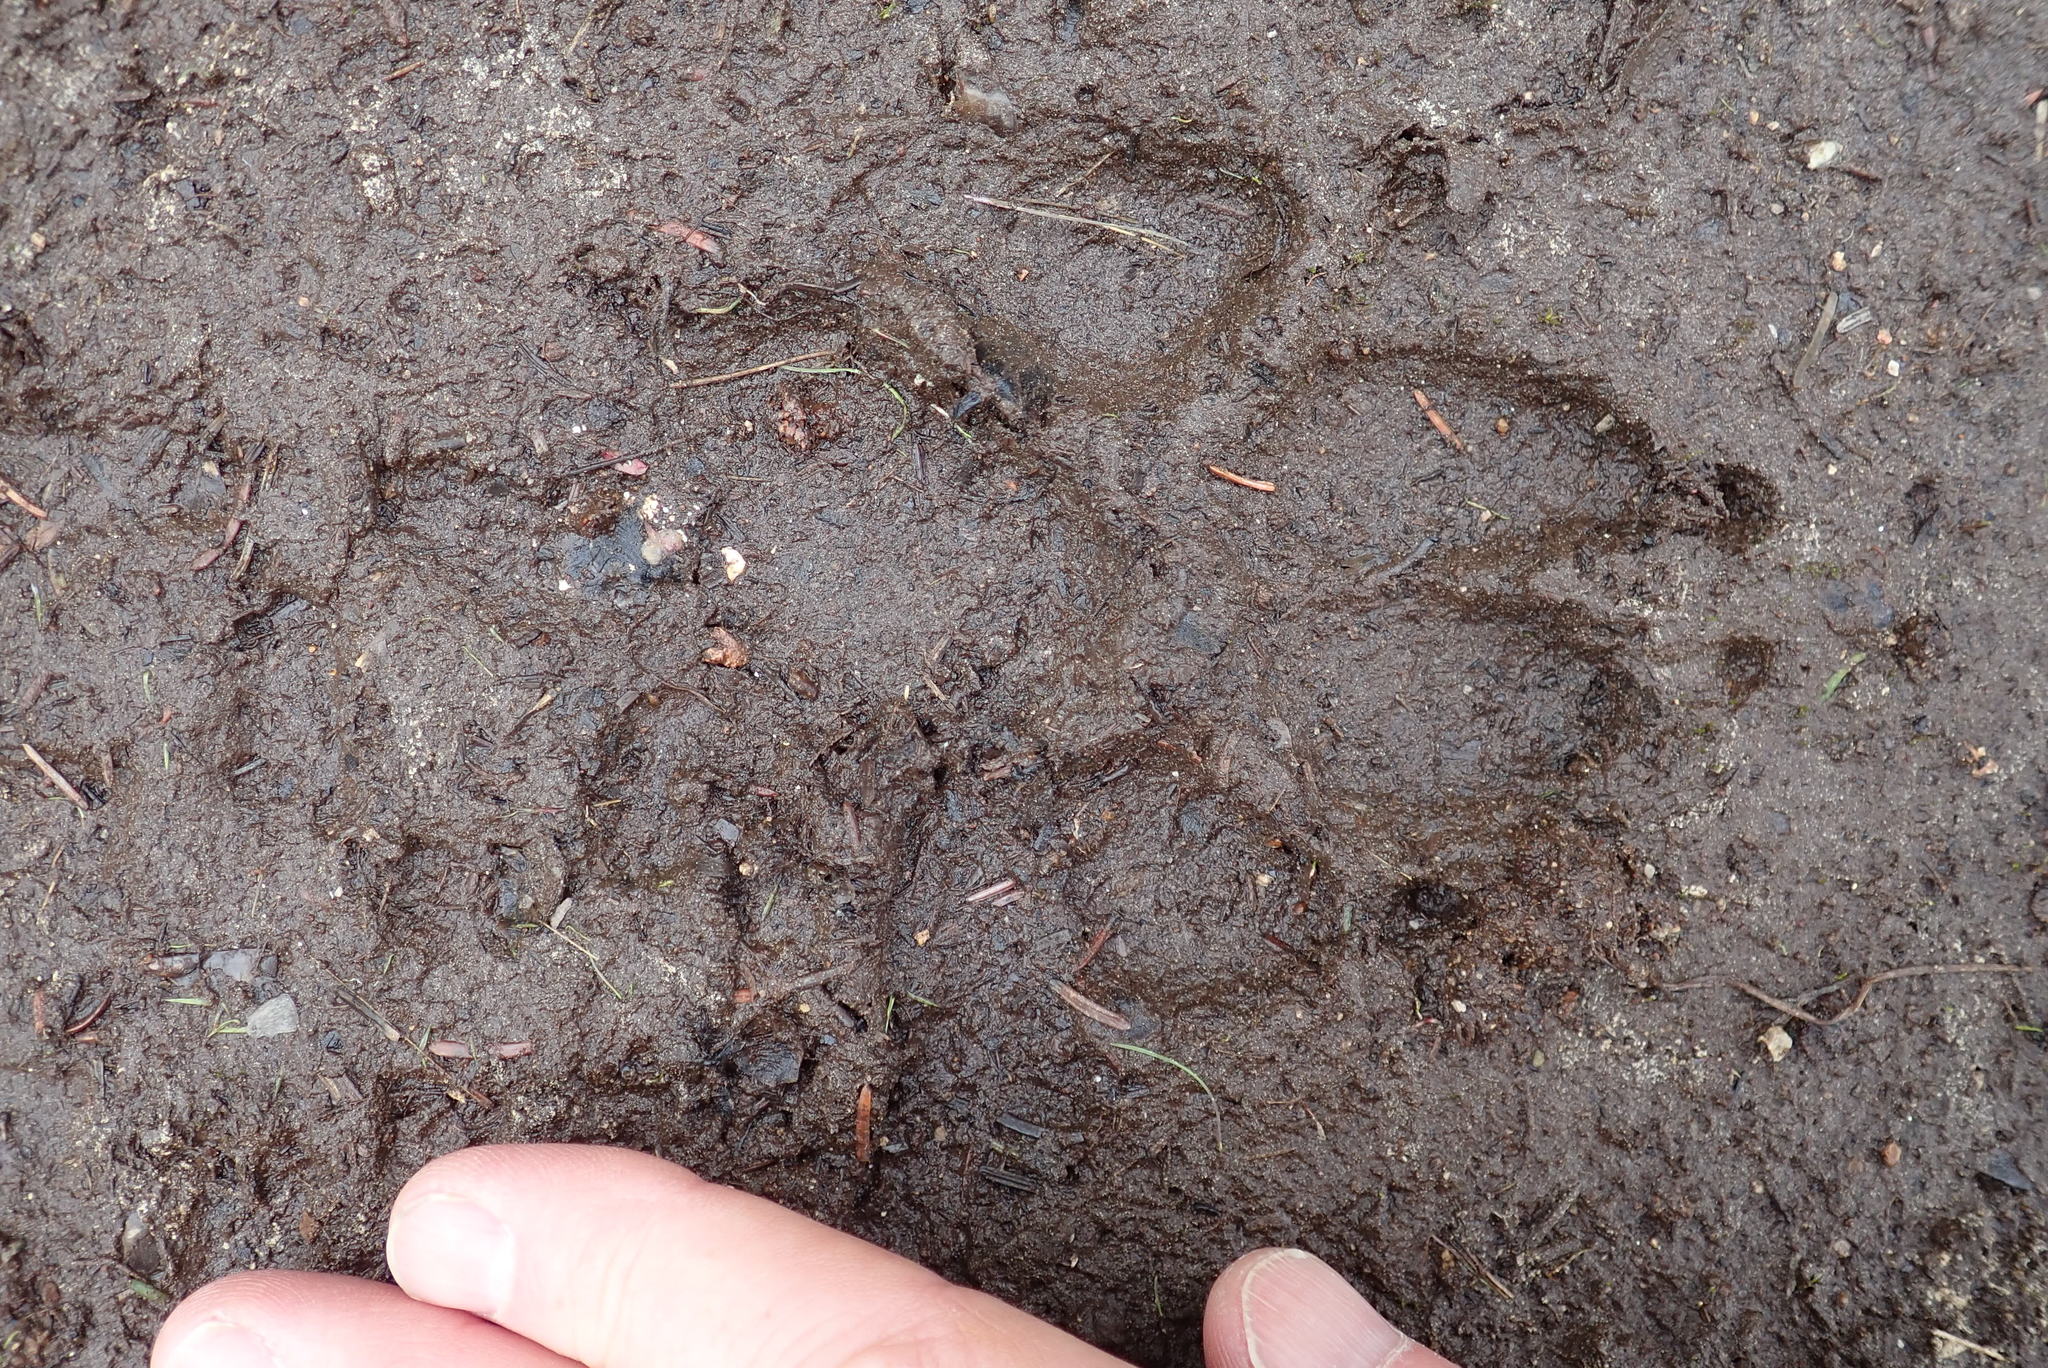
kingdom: Animalia
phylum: Chordata
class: Mammalia
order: Carnivora
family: Canidae
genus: Canis
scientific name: Canis lupus
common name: Gray wolf
